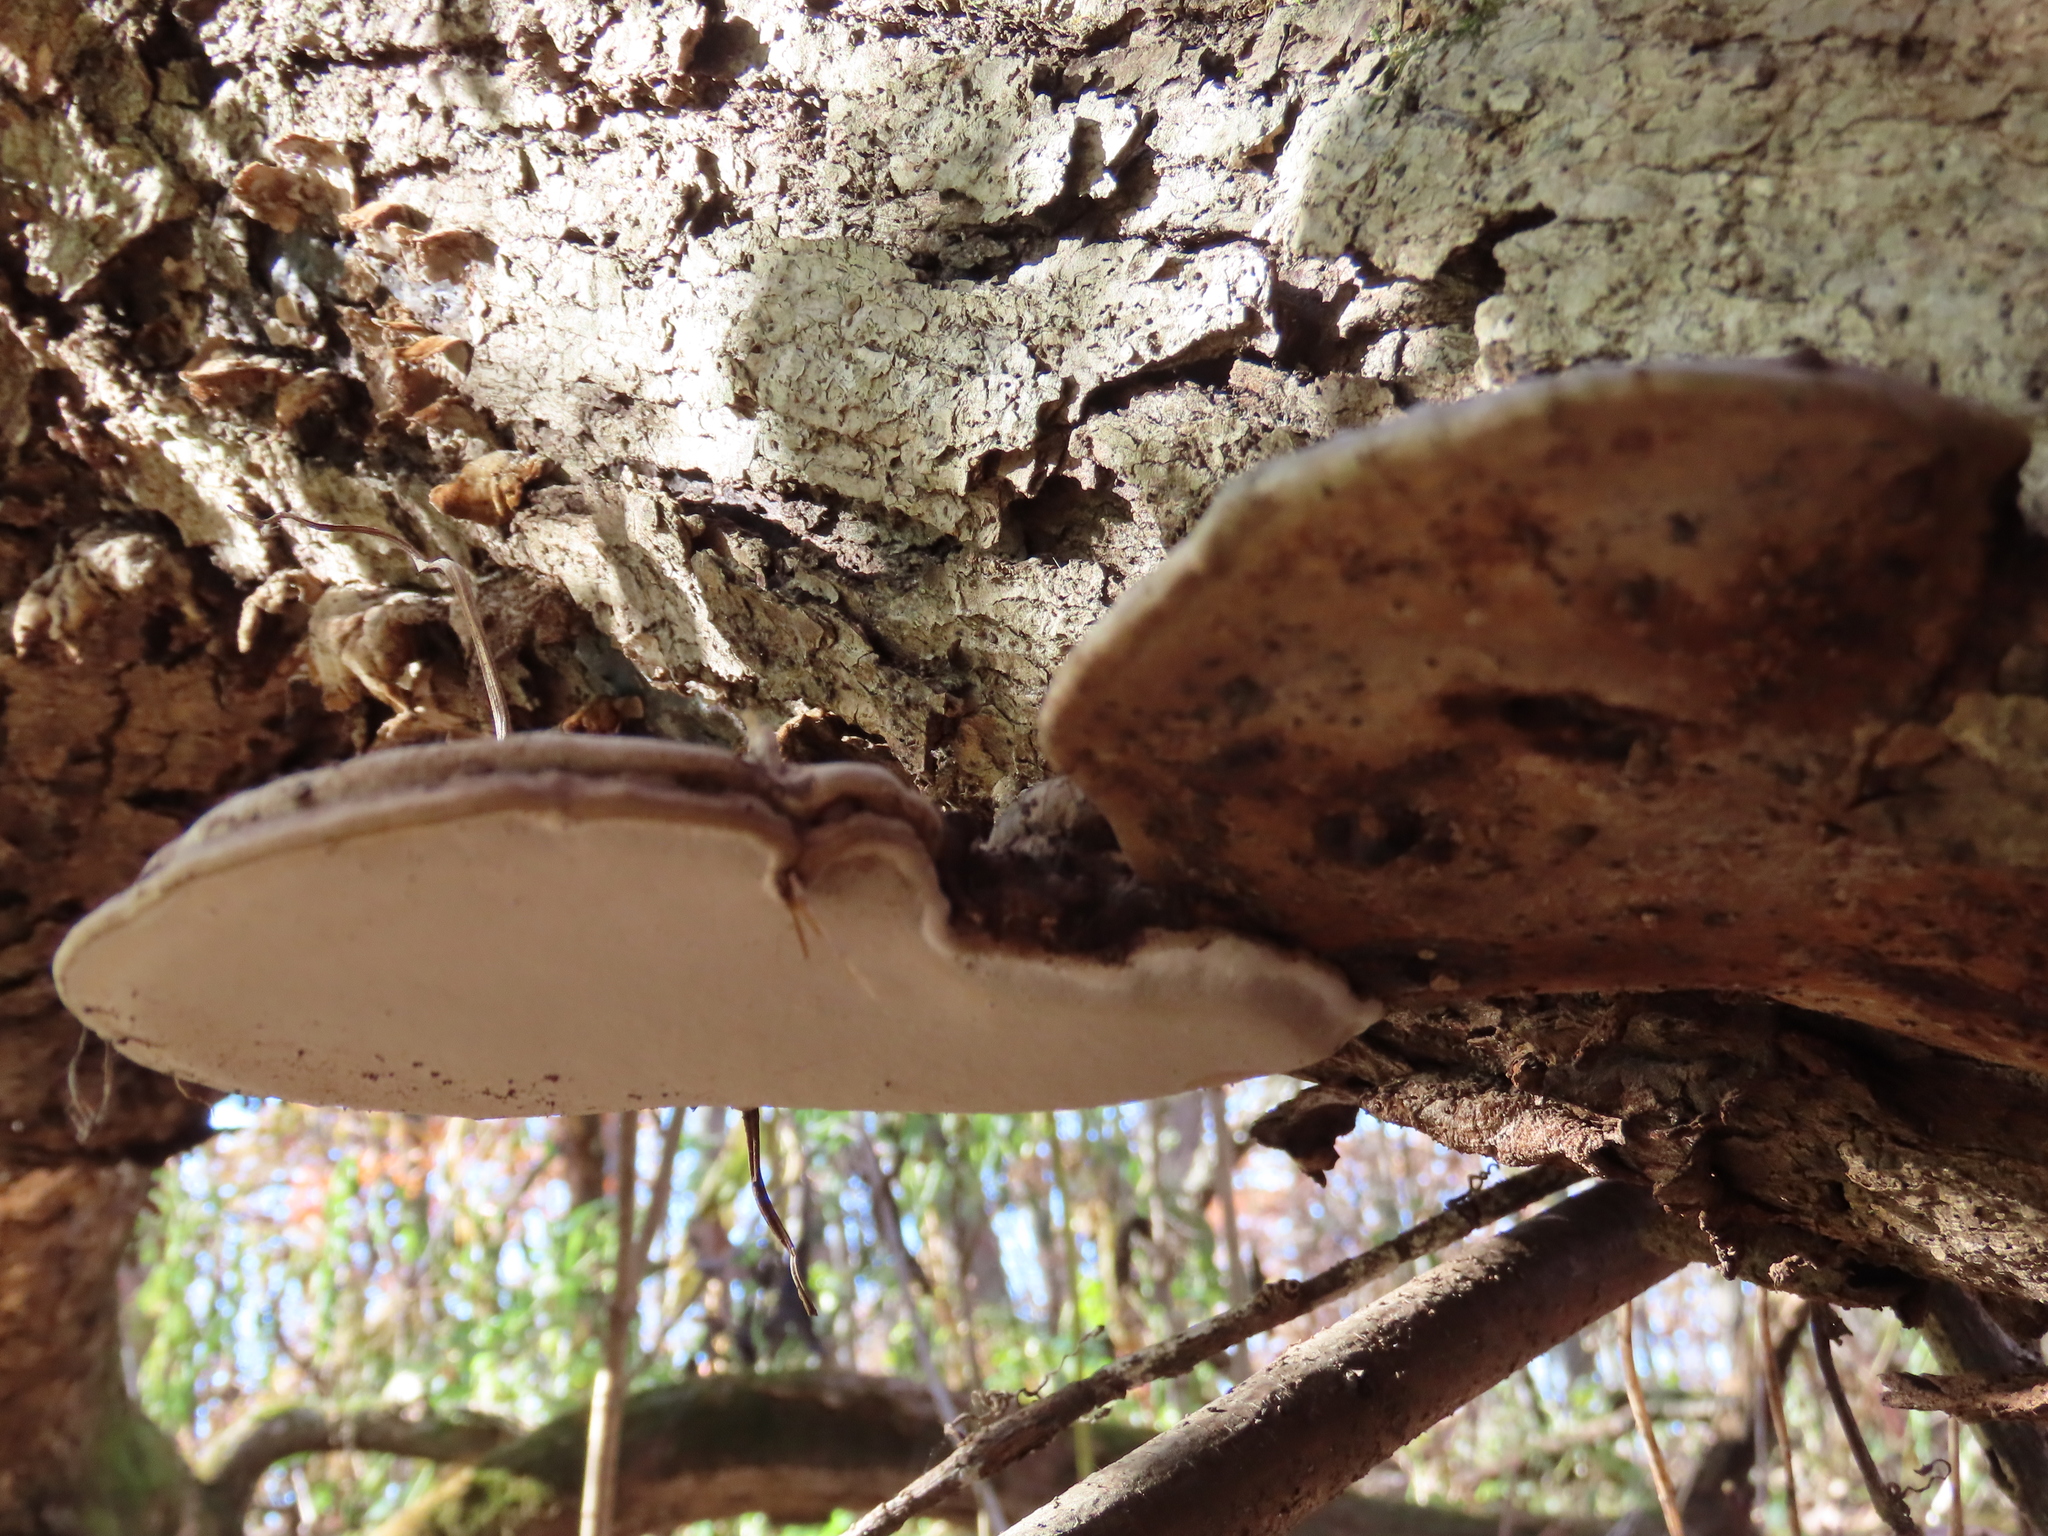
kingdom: Fungi
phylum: Basidiomycota
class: Agaricomycetes
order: Polyporales
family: Polyporaceae
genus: Ganoderma
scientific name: Ganoderma applanatum
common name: Artist's bracket
